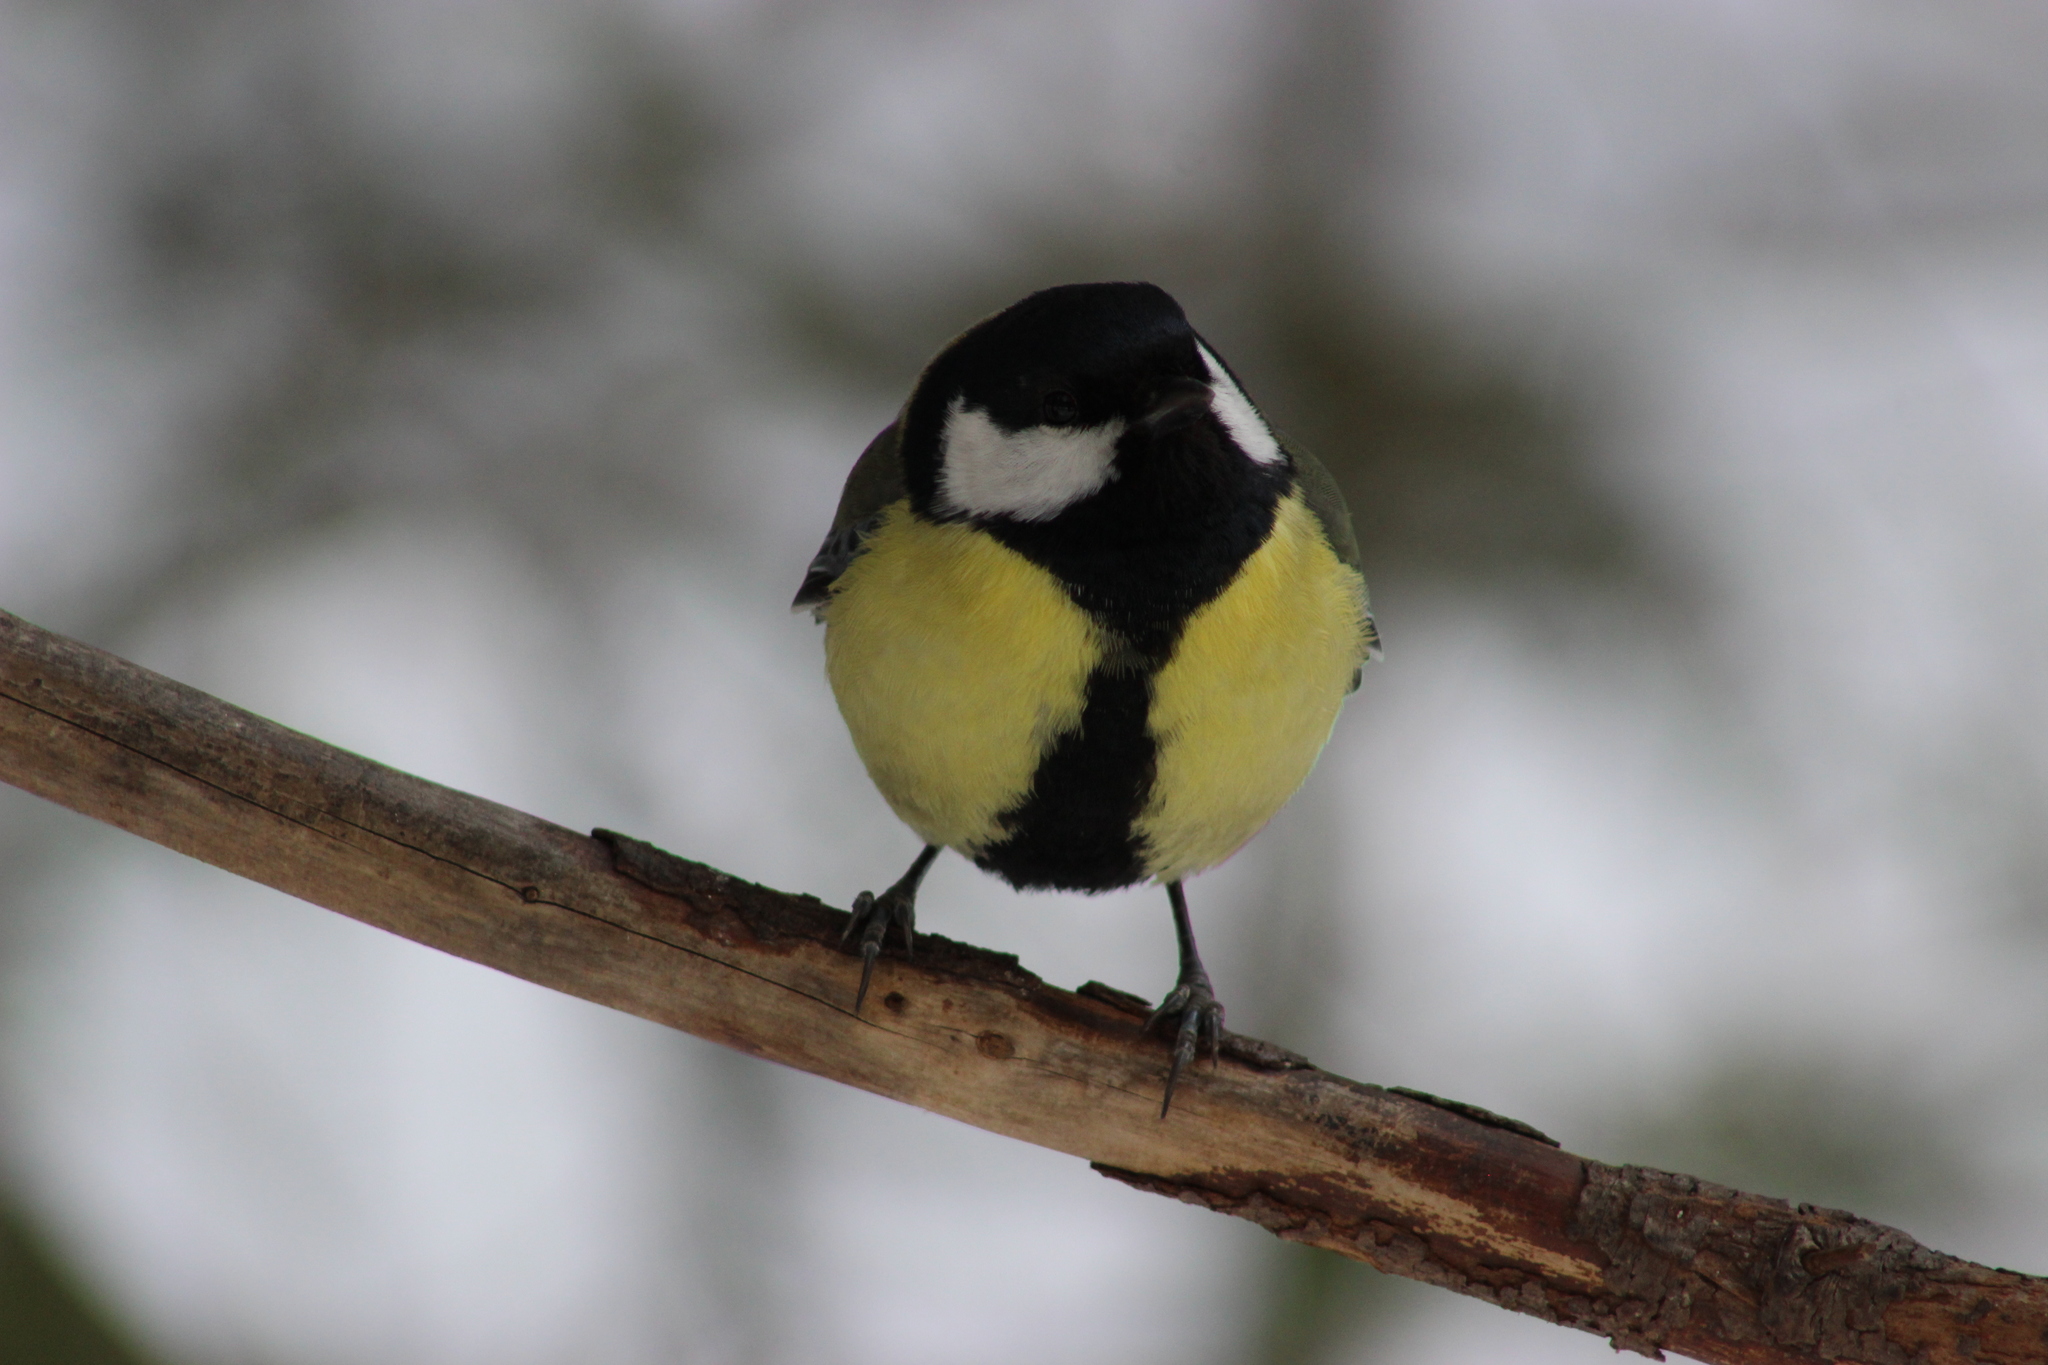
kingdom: Animalia
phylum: Chordata
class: Aves
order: Passeriformes
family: Paridae
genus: Parus
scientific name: Parus major
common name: Great tit
